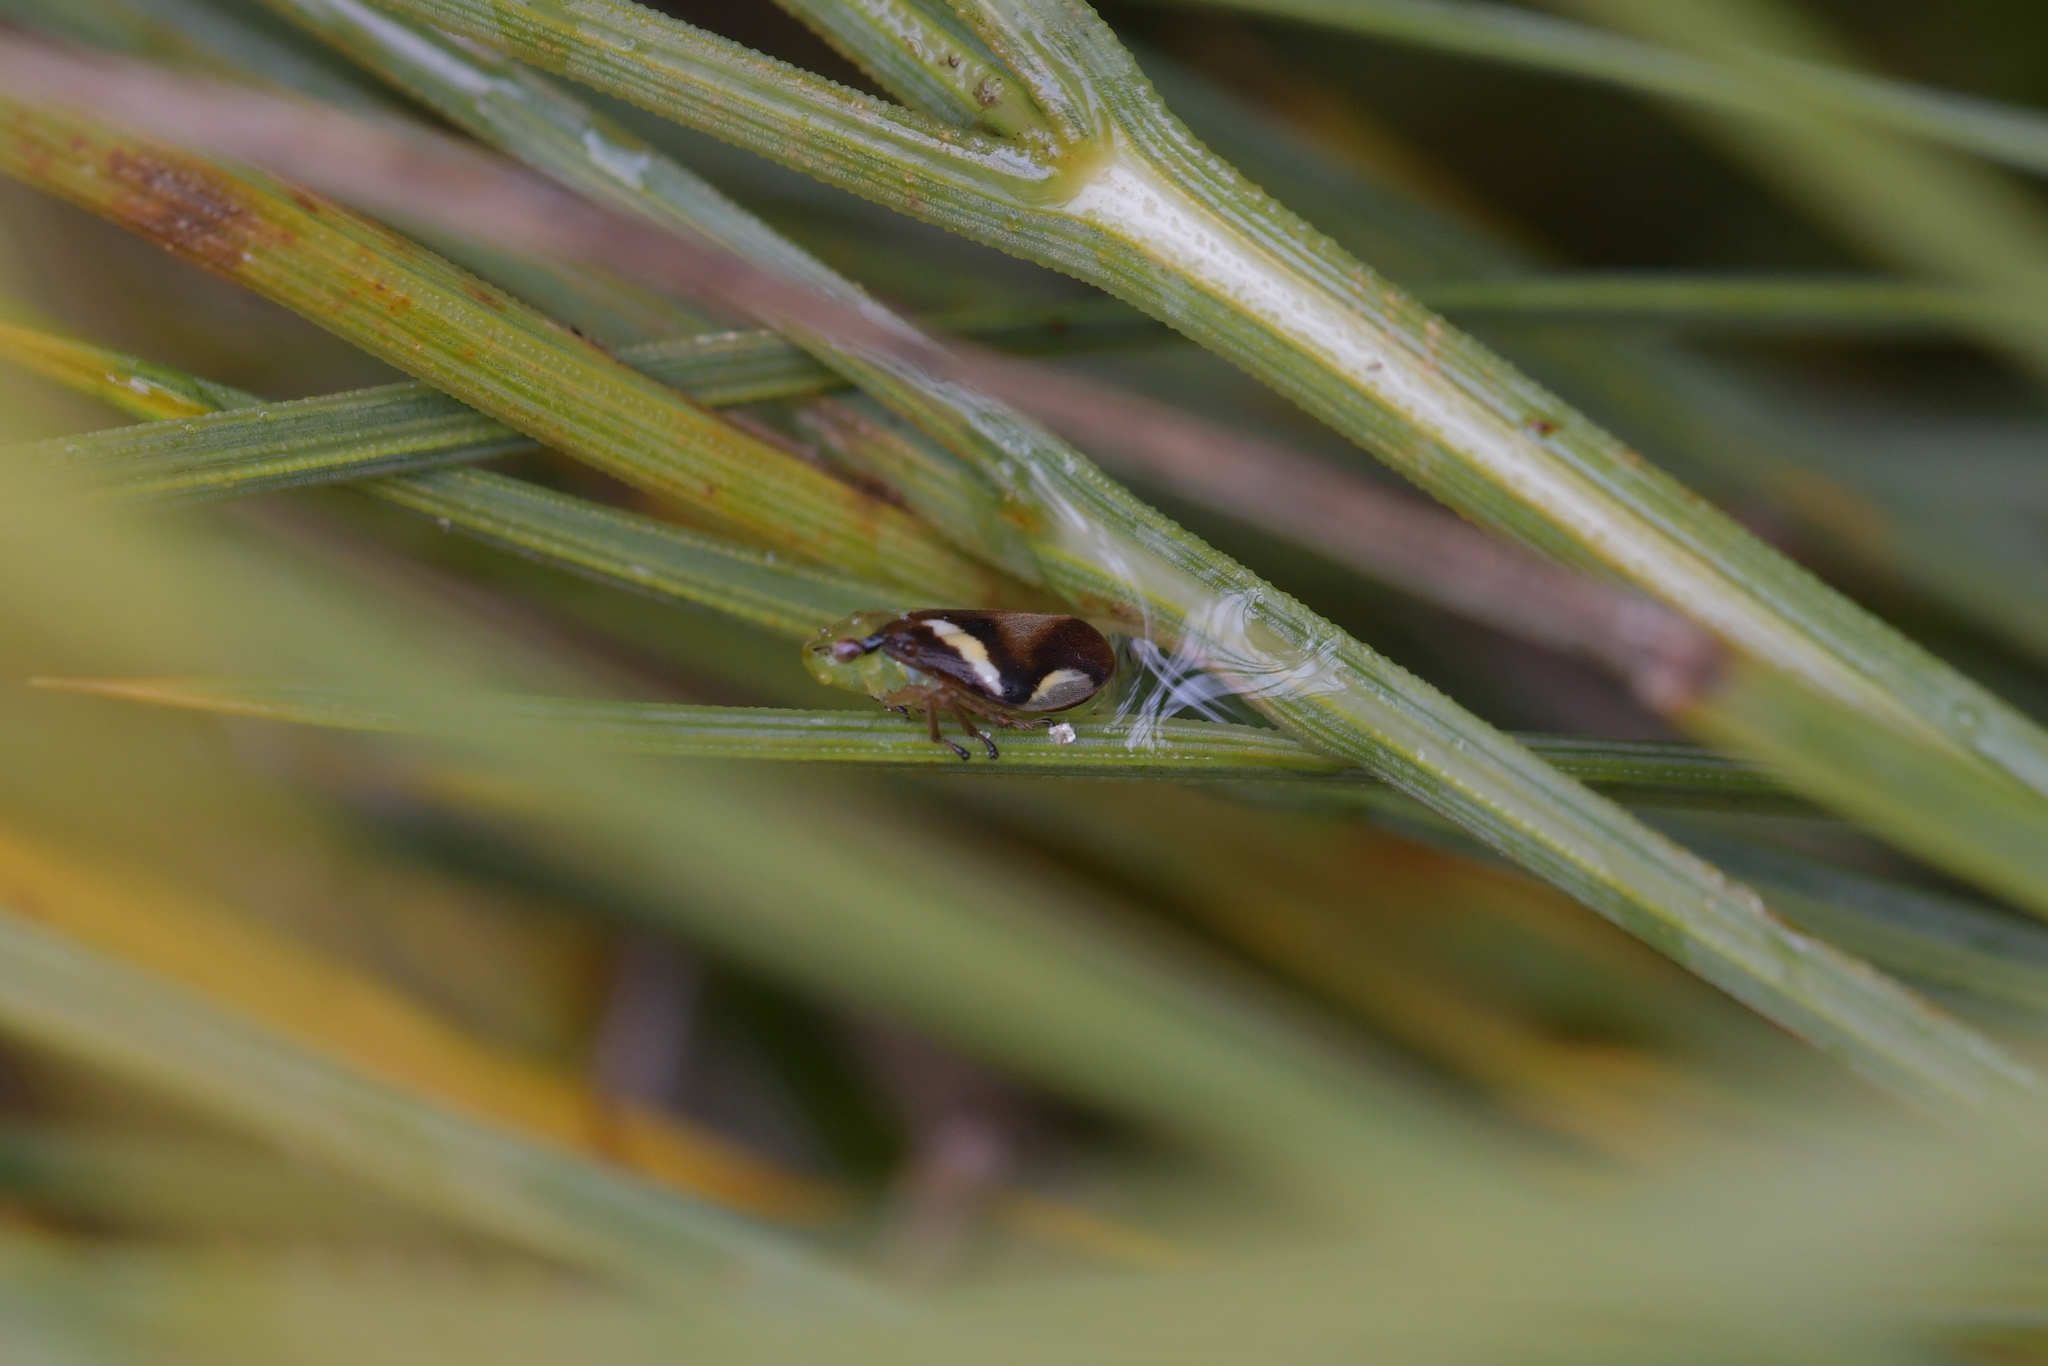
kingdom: Animalia
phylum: Arthropoda
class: Insecta
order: Hemiptera
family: Aphrophoridae
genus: Carystoterpa
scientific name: Carystoterpa fingens
